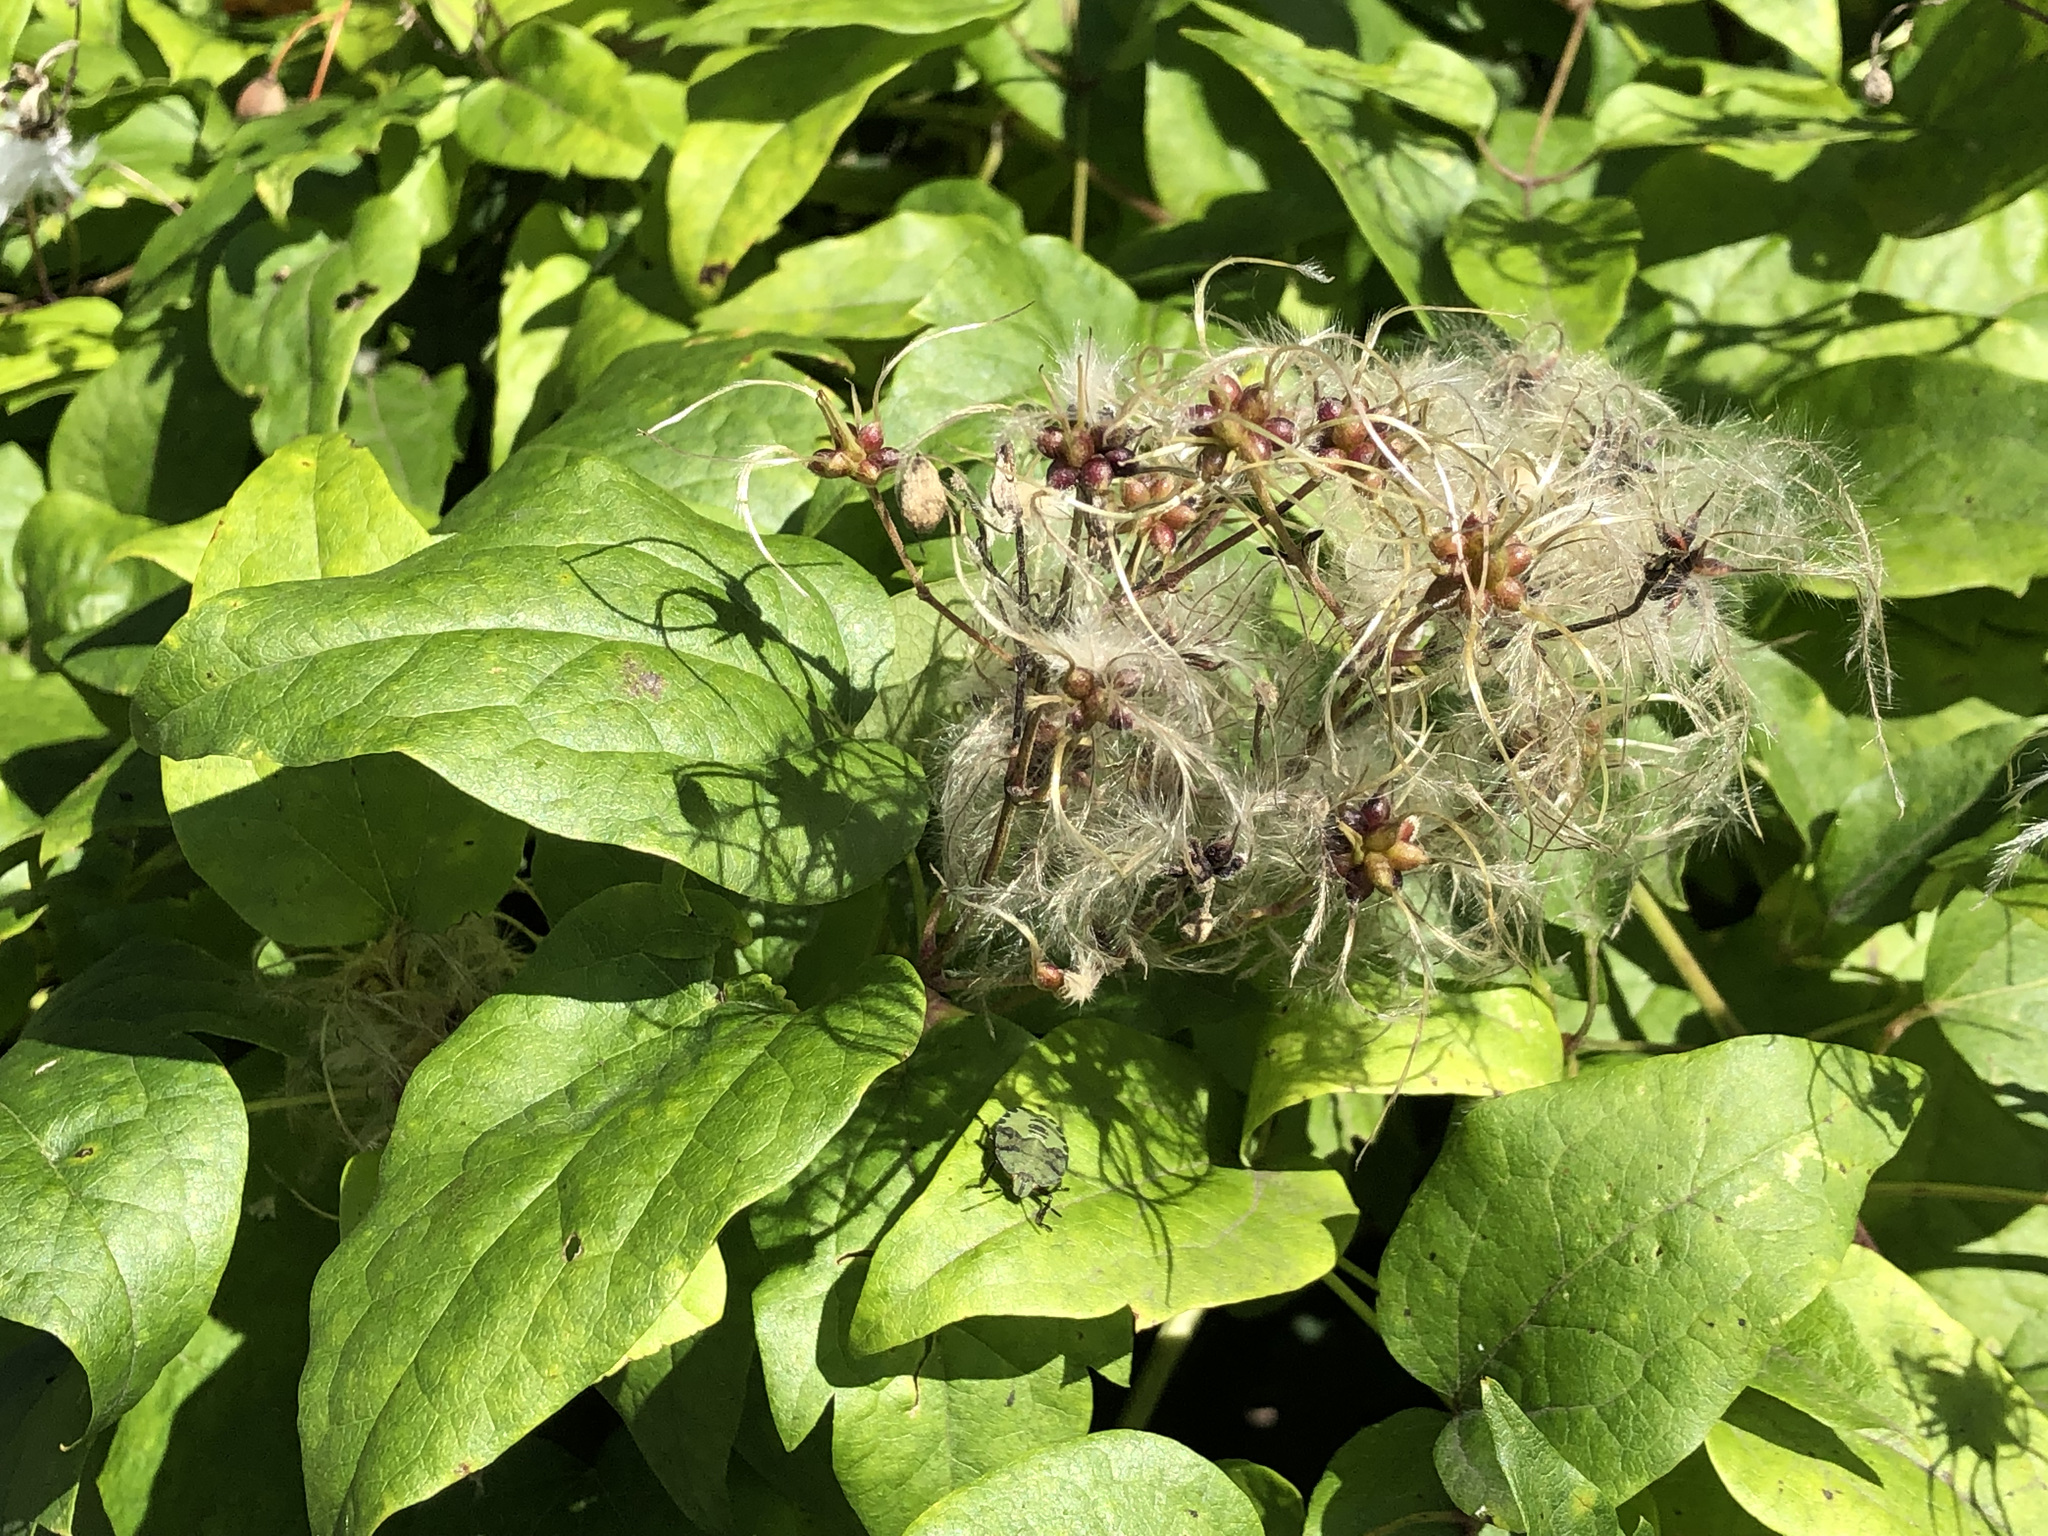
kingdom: Plantae
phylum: Tracheophyta
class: Magnoliopsida
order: Ranunculales
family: Ranunculaceae
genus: Clematis
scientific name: Clematis vitalba
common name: Evergreen clematis
